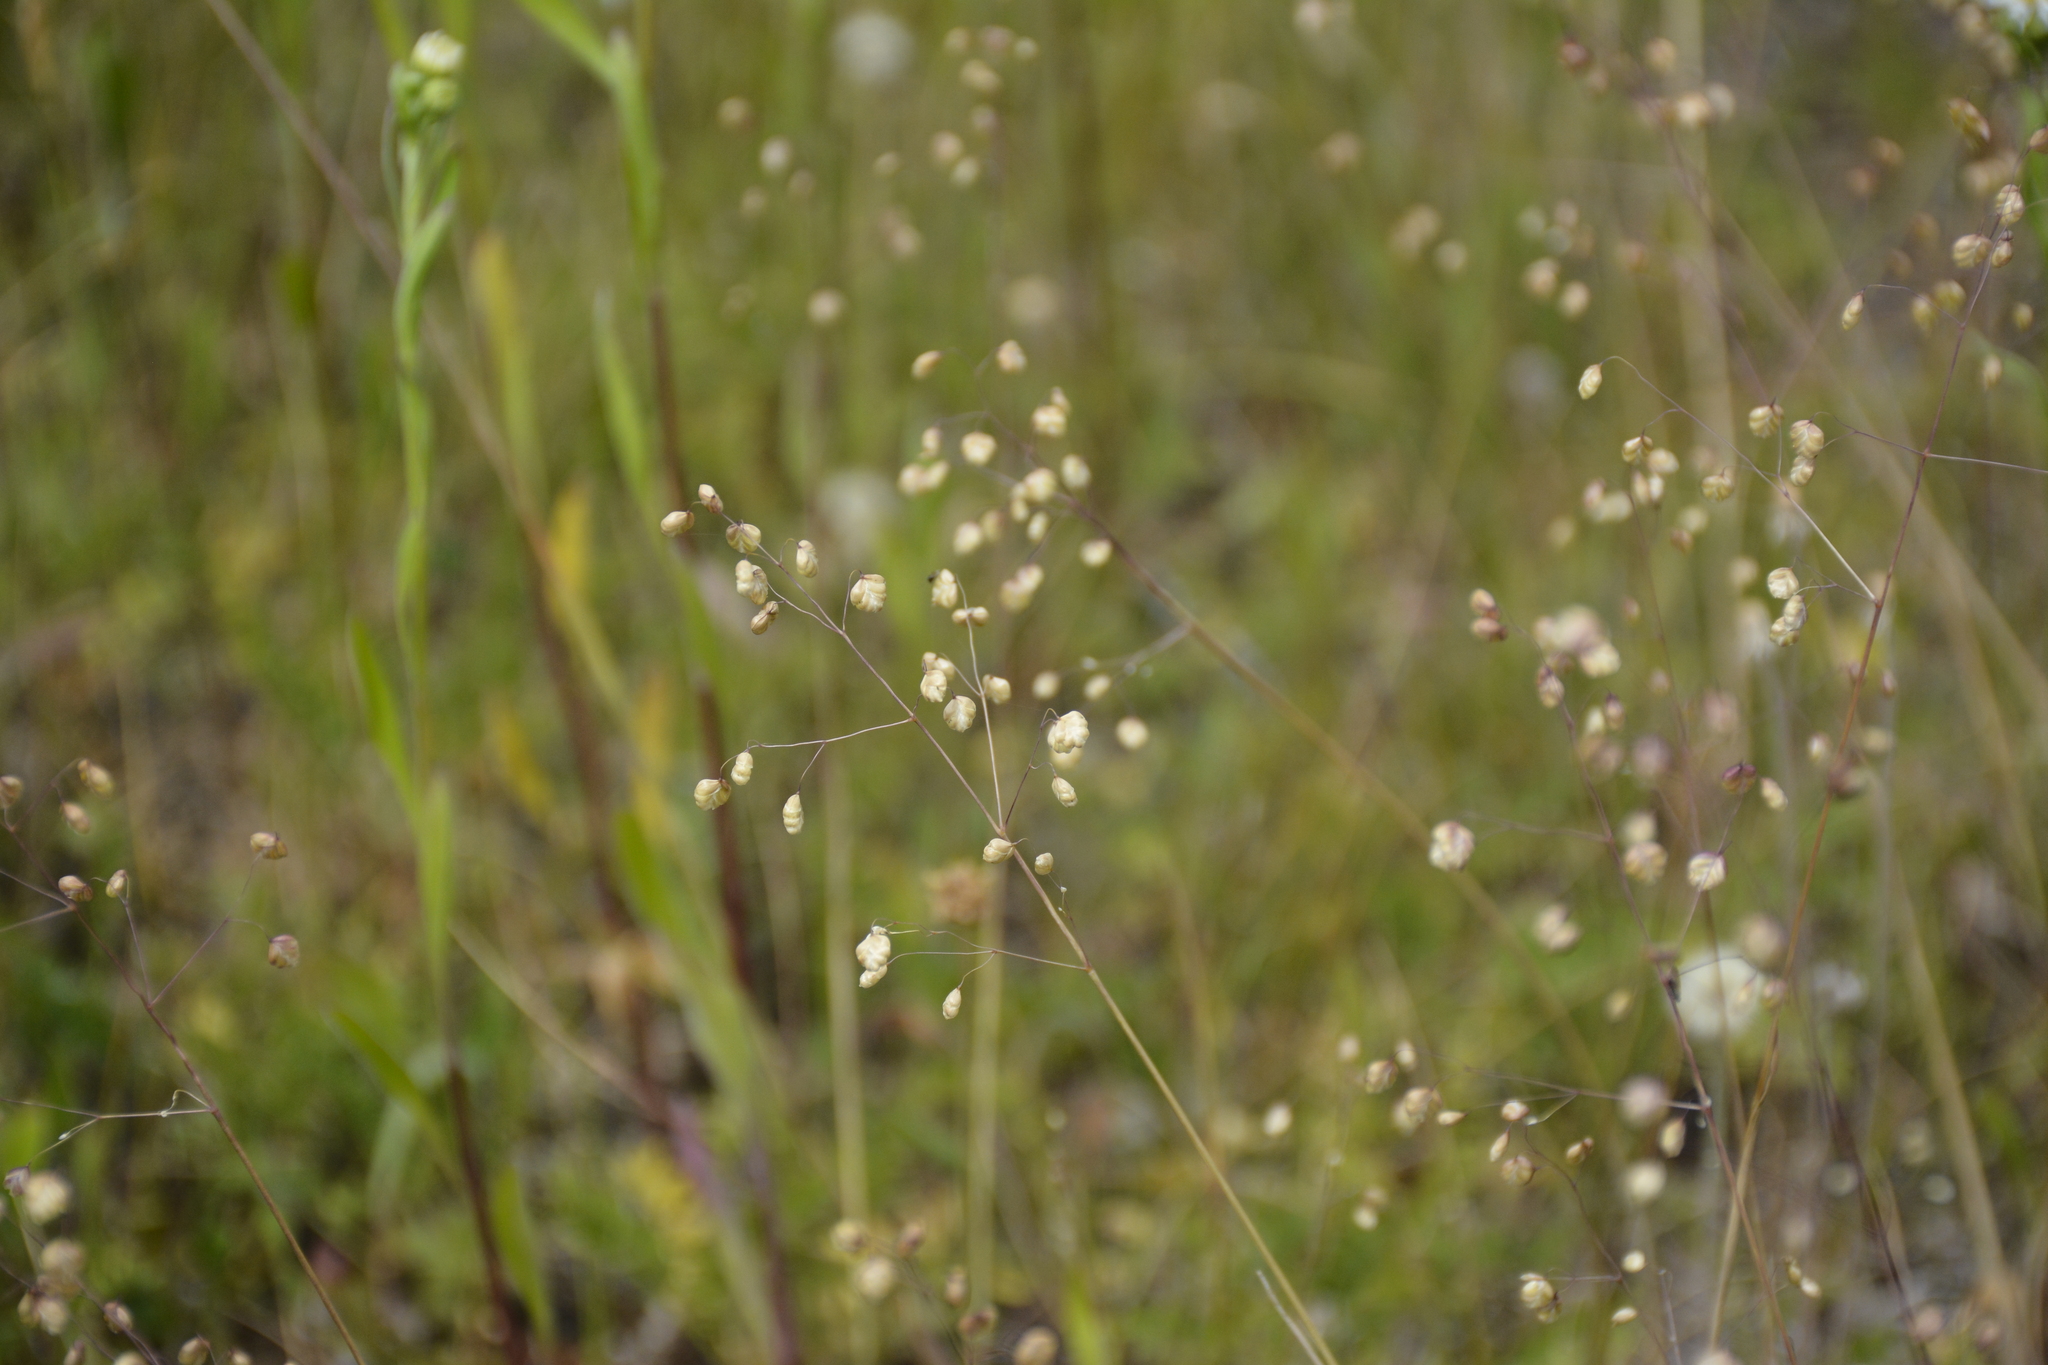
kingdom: Plantae
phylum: Tracheophyta
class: Liliopsida
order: Poales
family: Poaceae
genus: Briza
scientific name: Briza media
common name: Quaking grass
